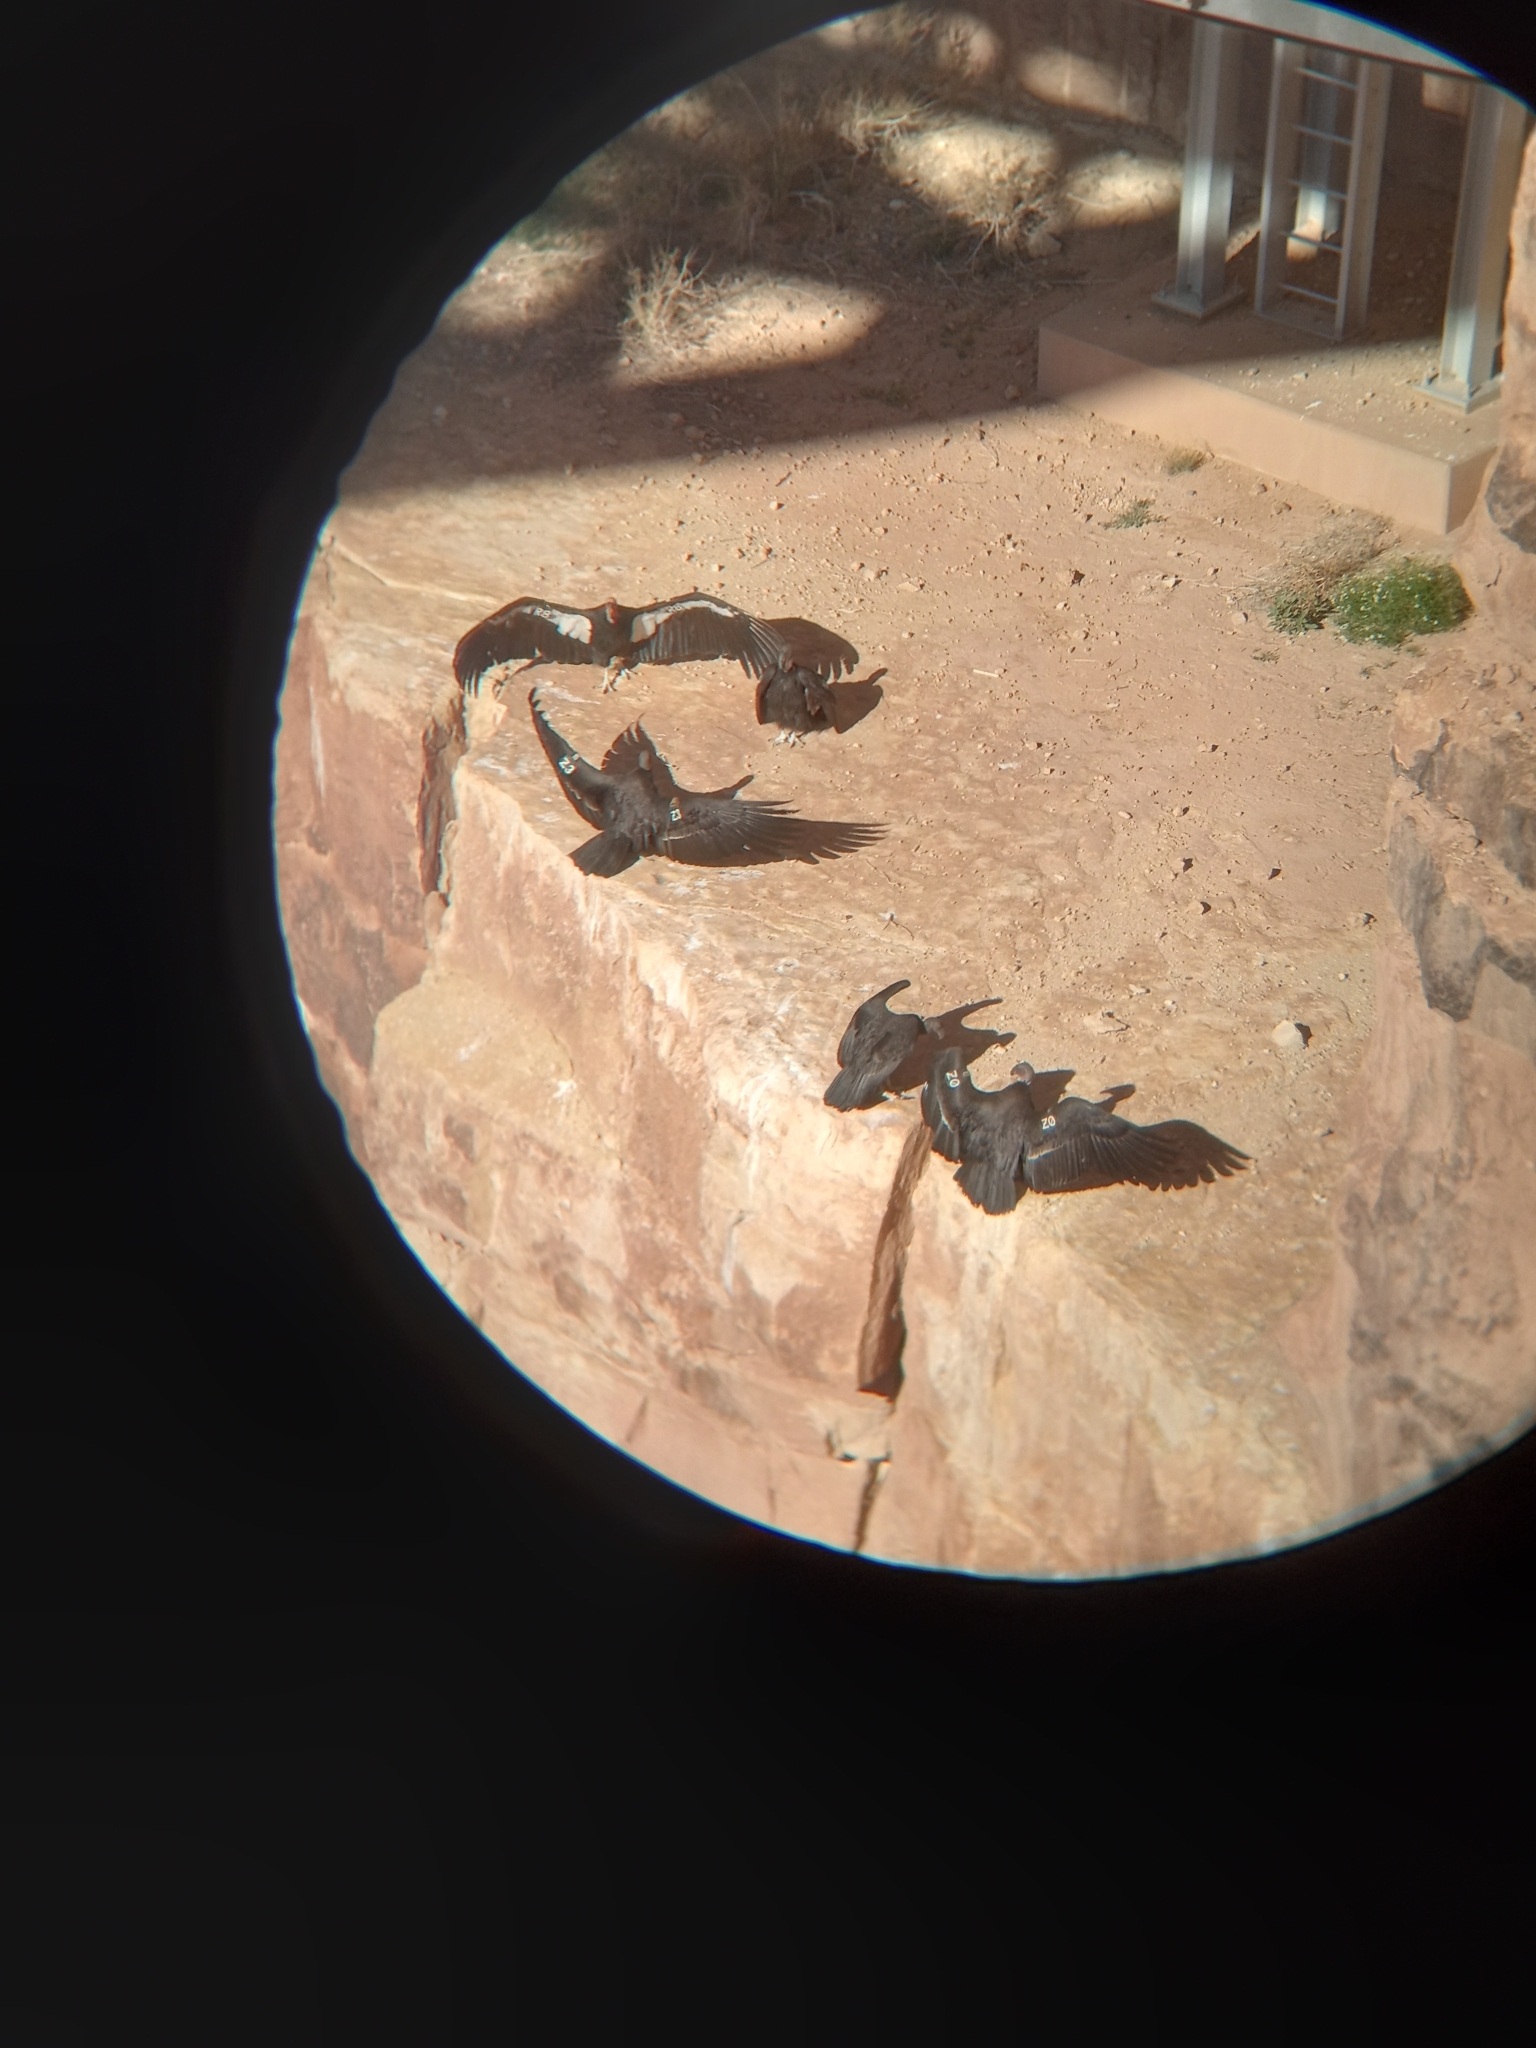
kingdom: Animalia
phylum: Chordata
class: Aves
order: Accipitriformes
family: Cathartidae
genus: Gymnogyps
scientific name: Gymnogyps californianus
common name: California condor
